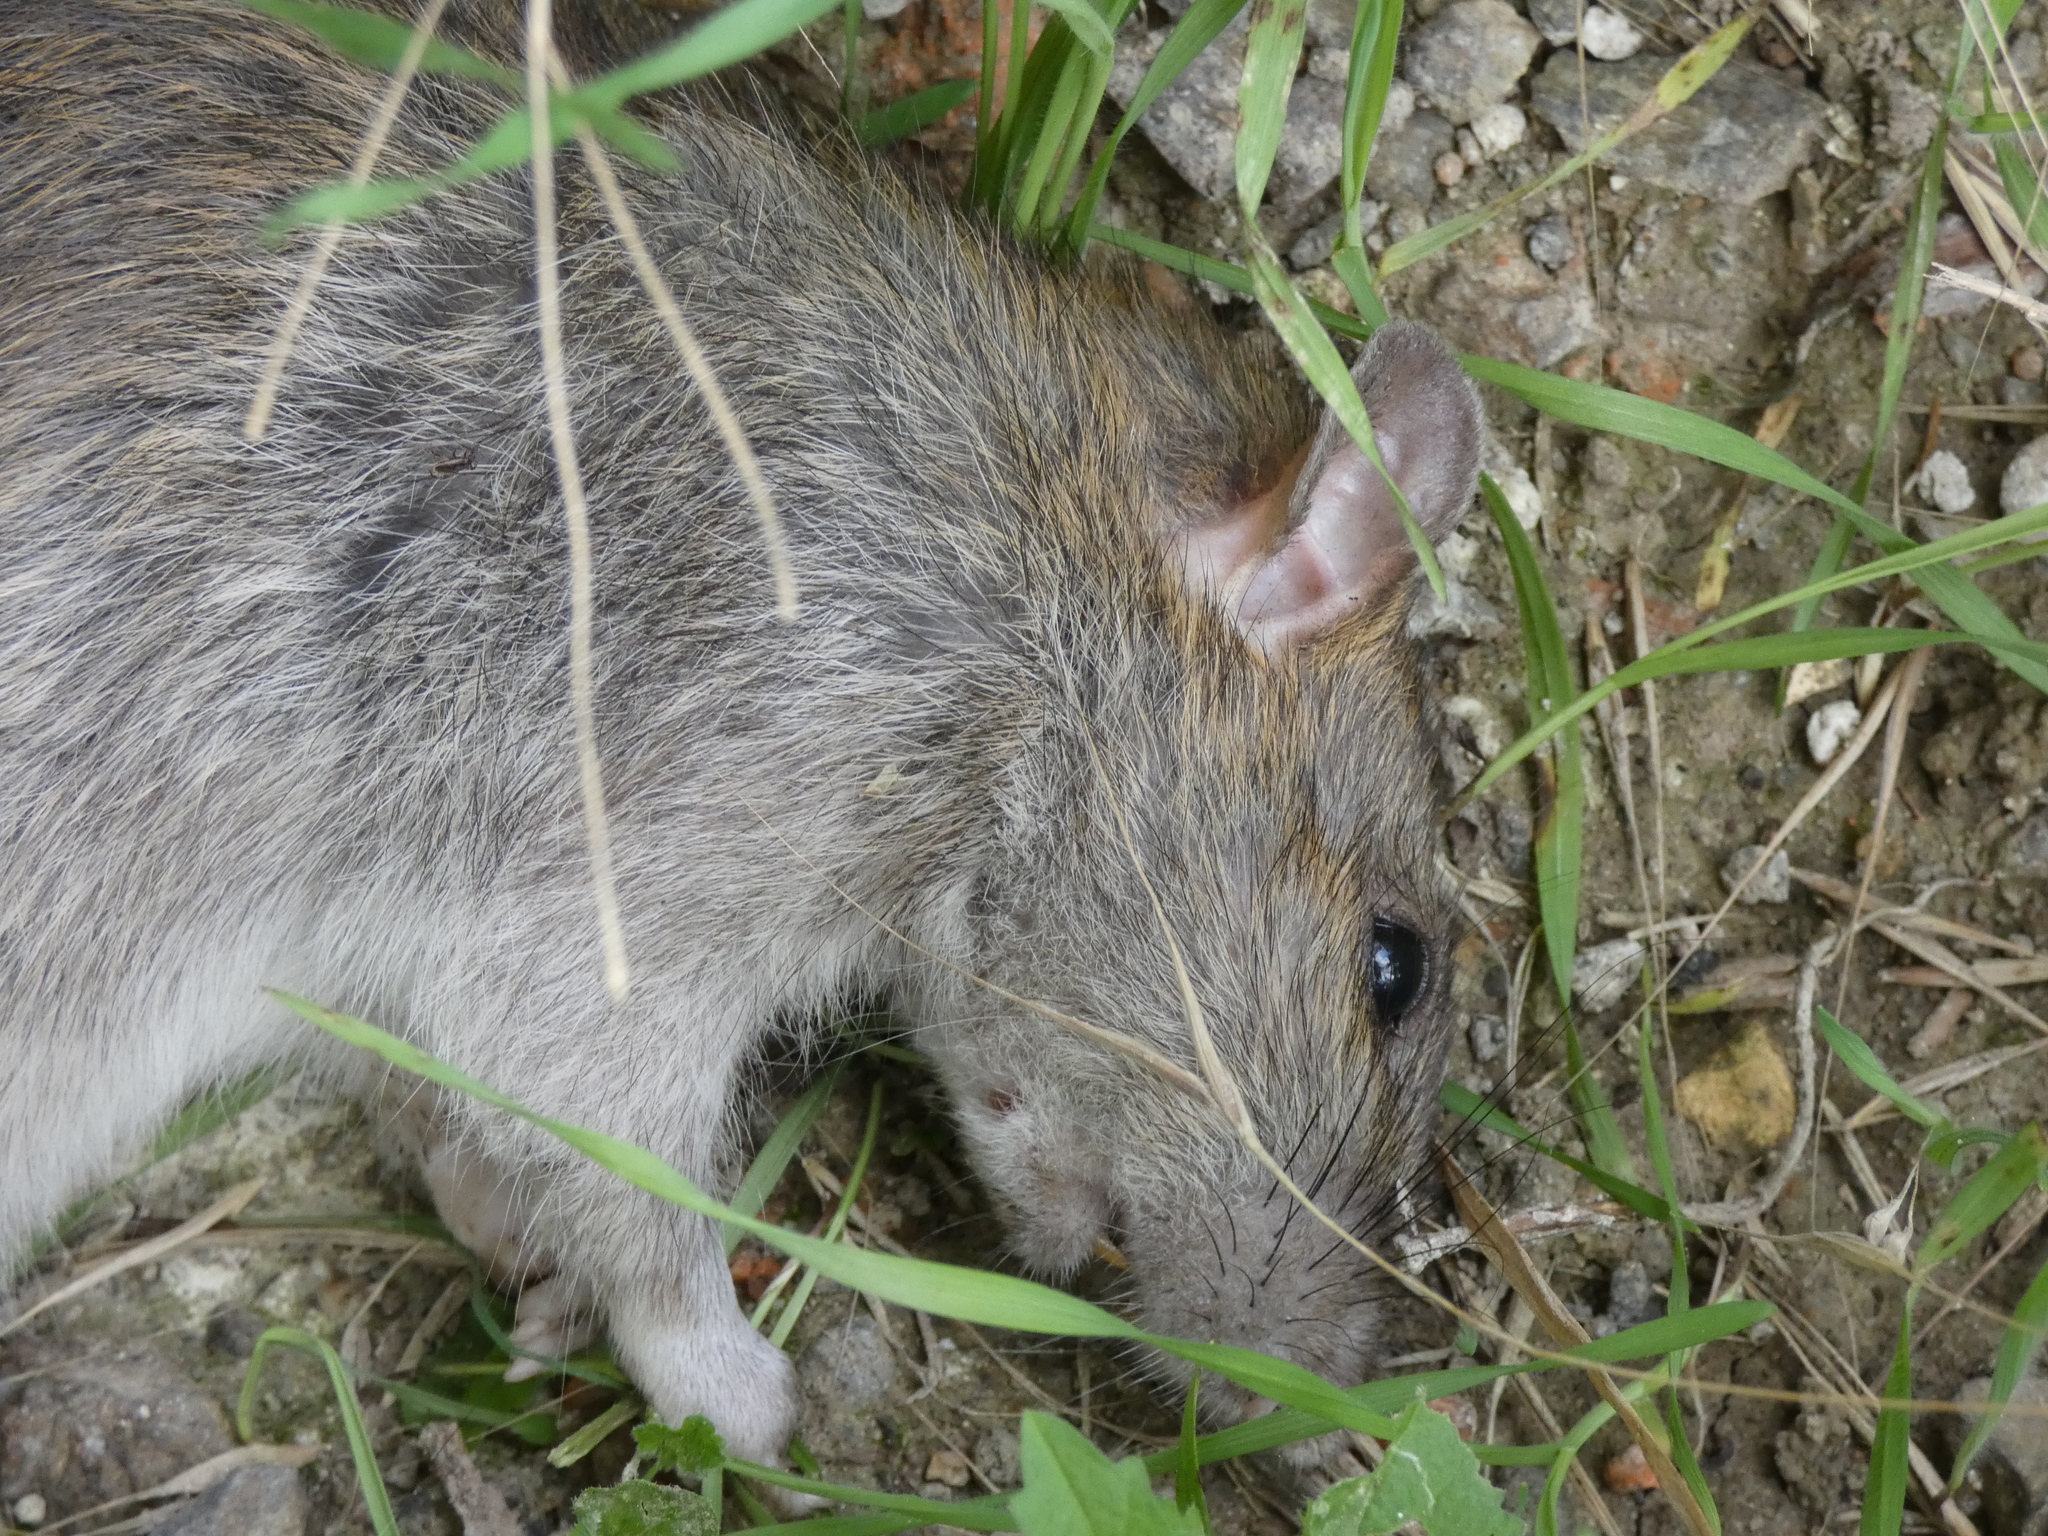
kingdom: Animalia
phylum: Chordata
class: Mammalia
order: Rodentia
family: Muridae
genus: Rattus
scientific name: Rattus norvegicus
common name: Brown rat
